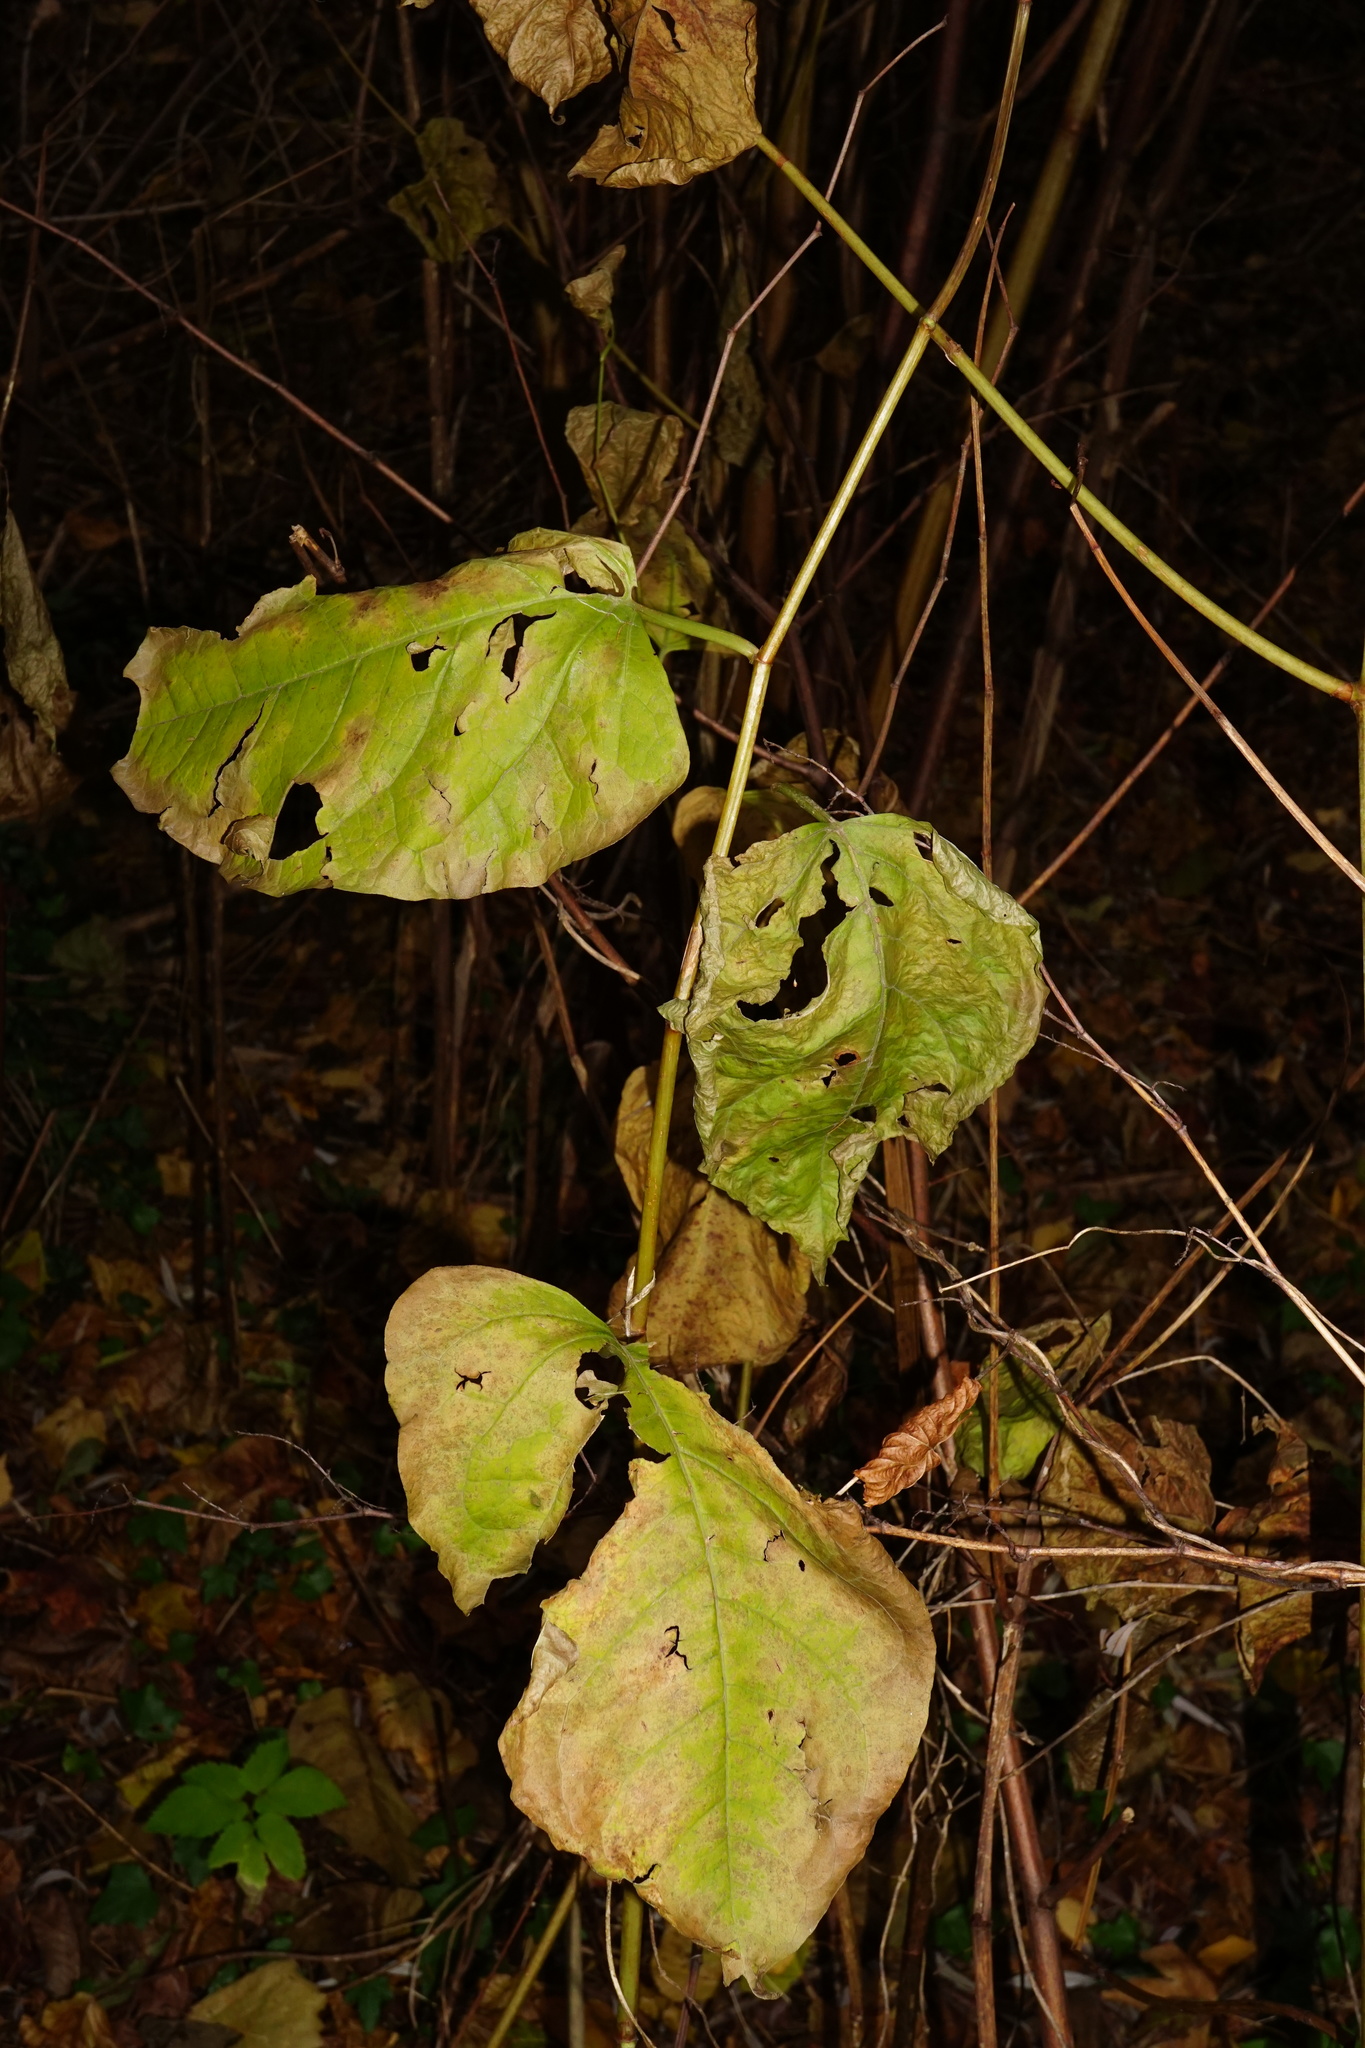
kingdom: Plantae
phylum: Tracheophyta
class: Magnoliopsida
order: Caryophyllales
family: Polygonaceae
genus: Reynoutria
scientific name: Reynoutria bohemica
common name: Bohemian knotweed
